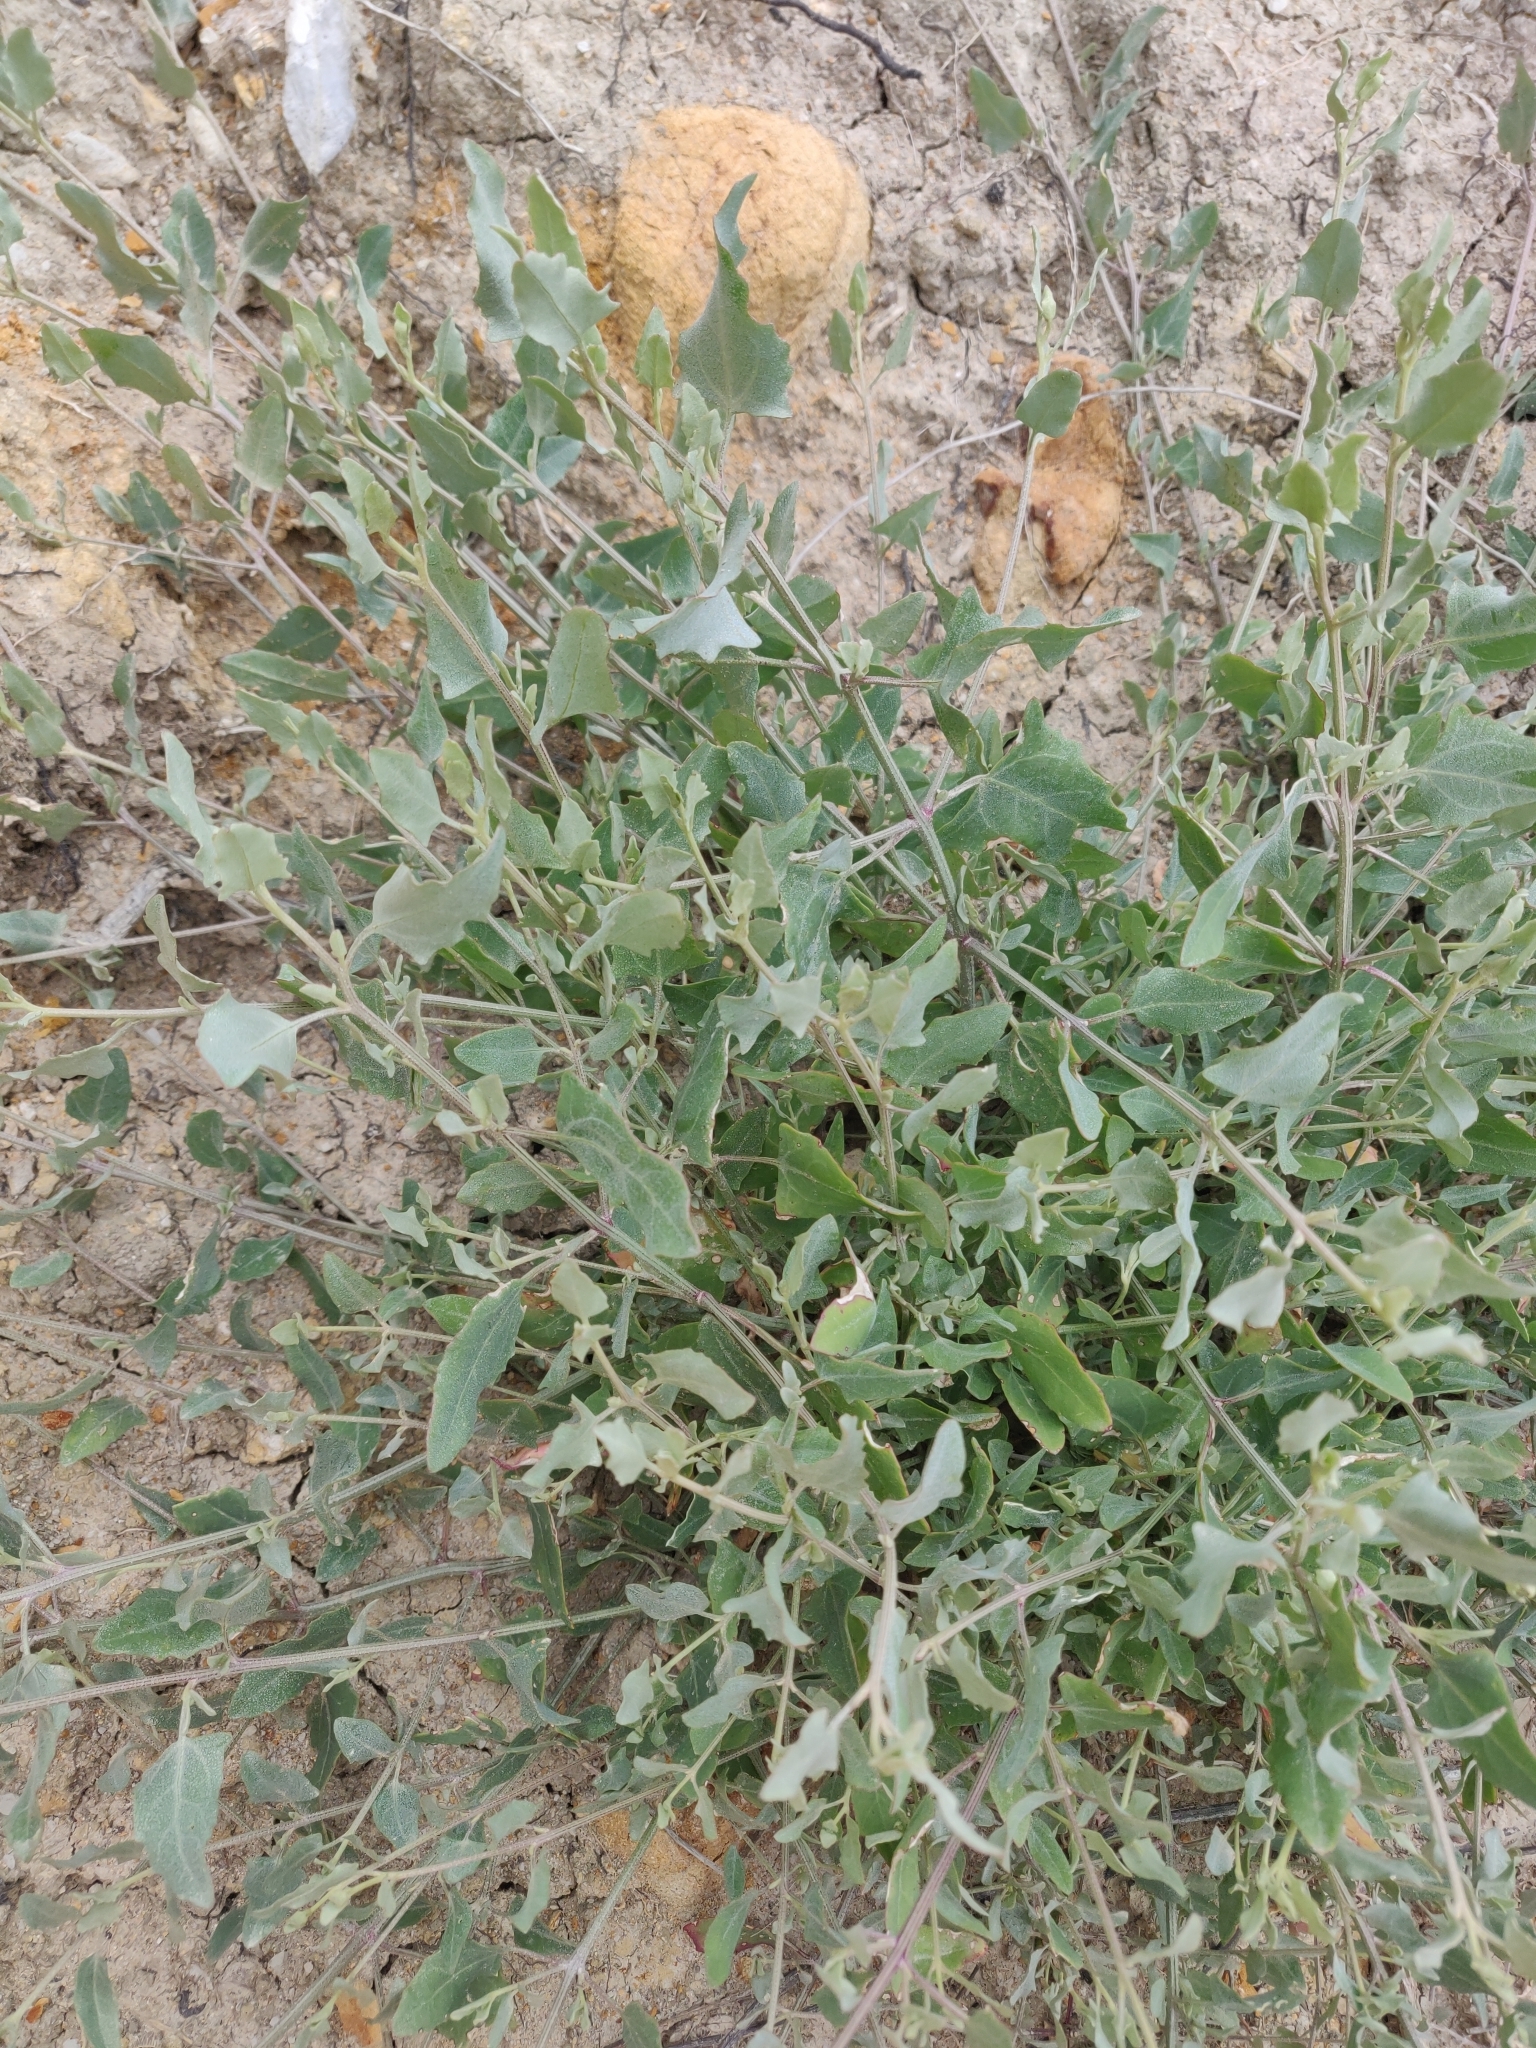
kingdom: Plantae
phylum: Tracheophyta
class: Magnoliopsida
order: Caryophyllales
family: Amaranthaceae
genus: Atriplex
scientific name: Atriplex prostrata
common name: Spear-leaved orache
